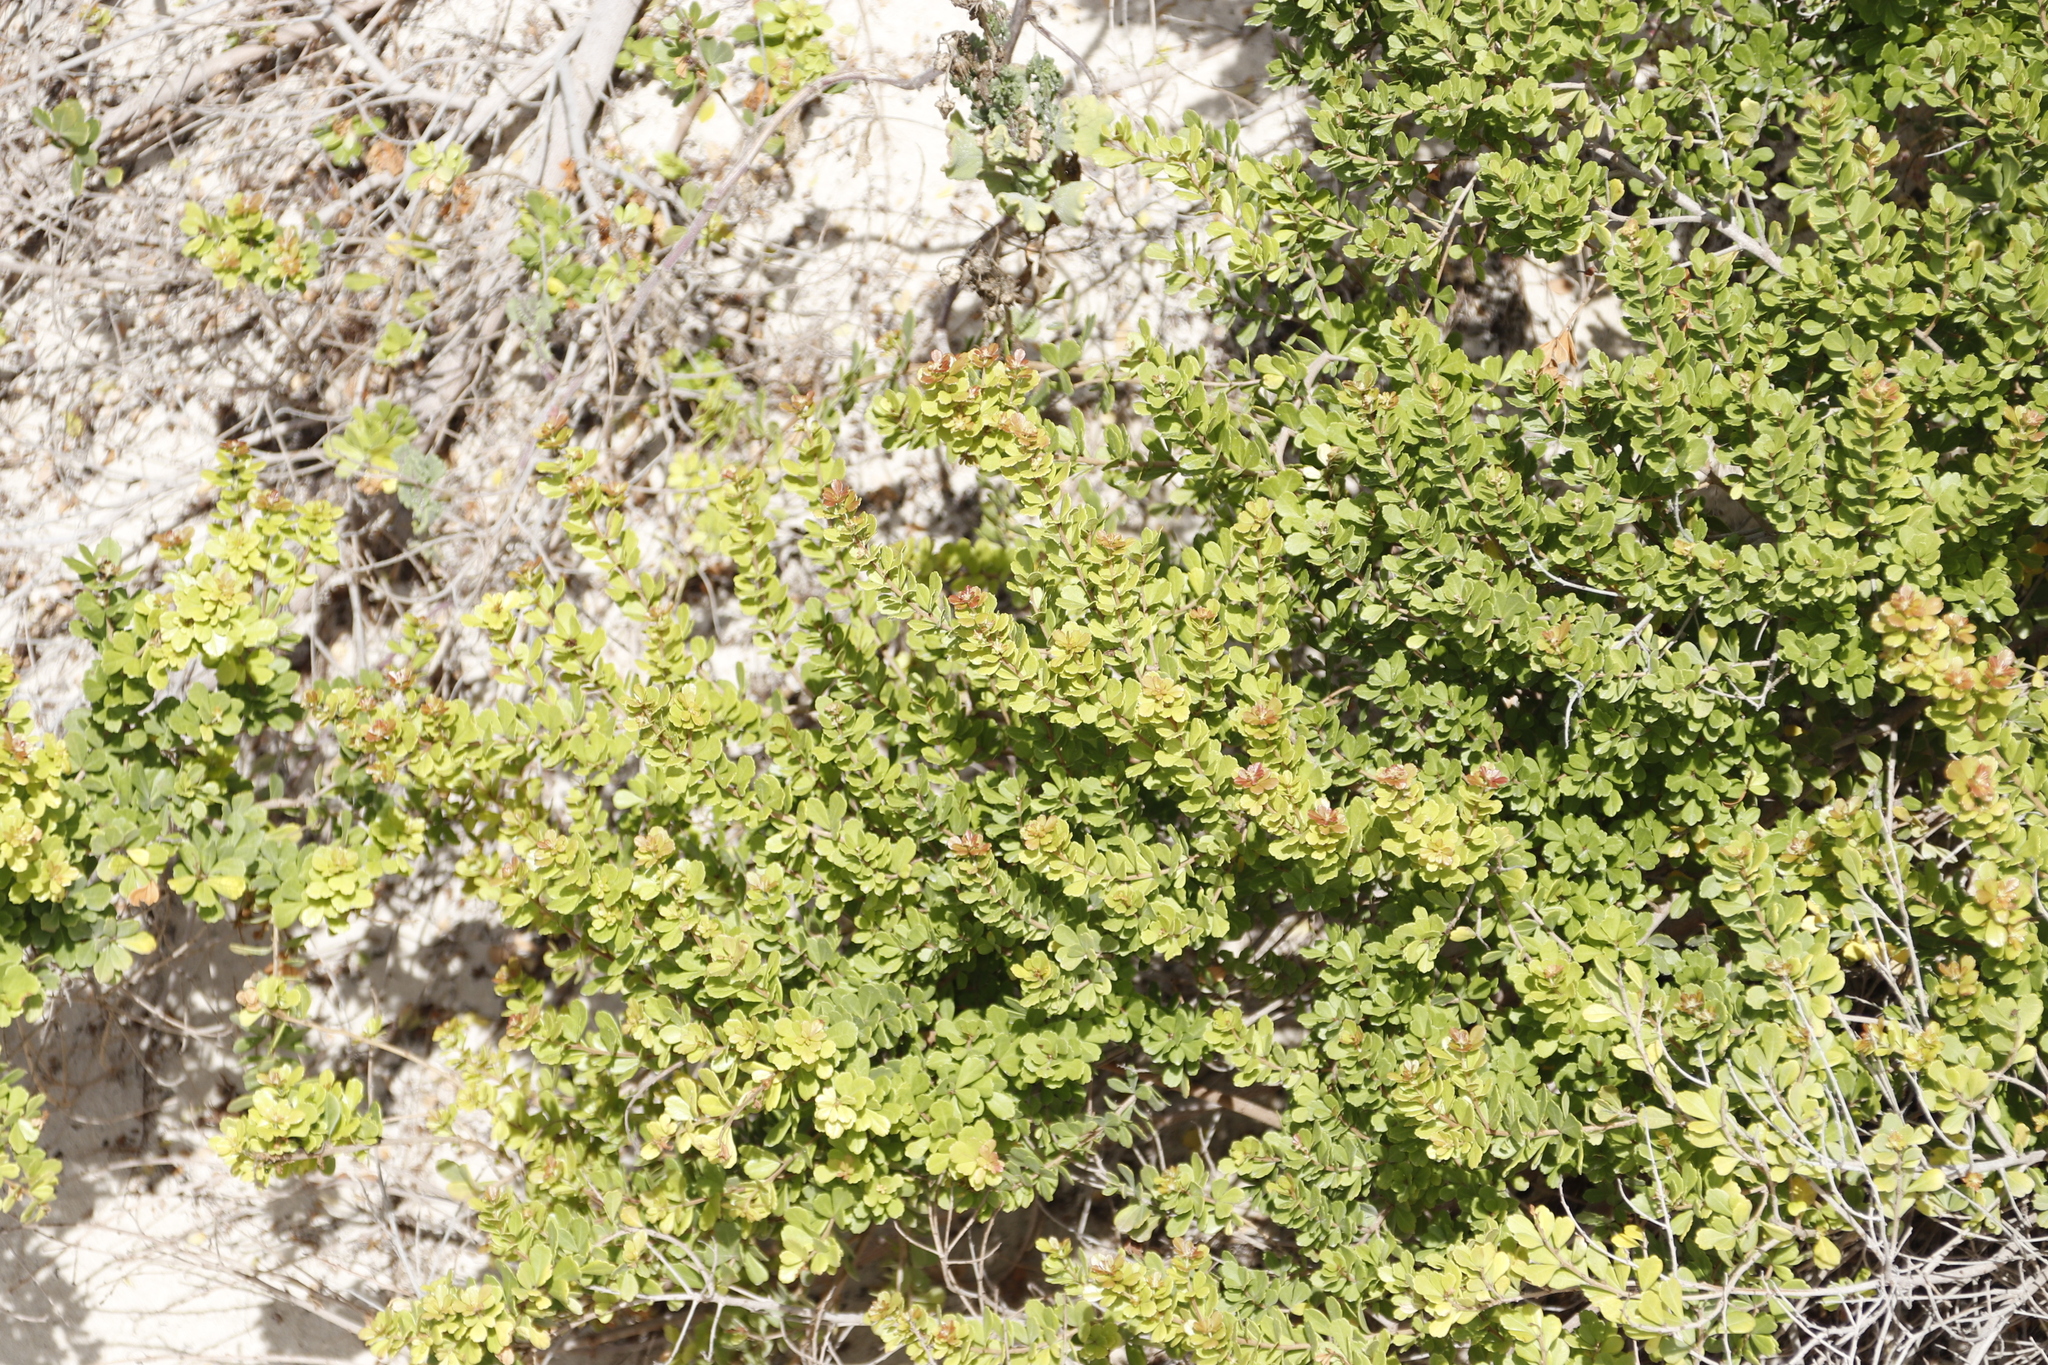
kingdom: Plantae
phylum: Tracheophyta
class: Magnoliopsida
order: Sapindales
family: Anacardiaceae
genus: Searsia
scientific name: Searsia crenata
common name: Crowberry
